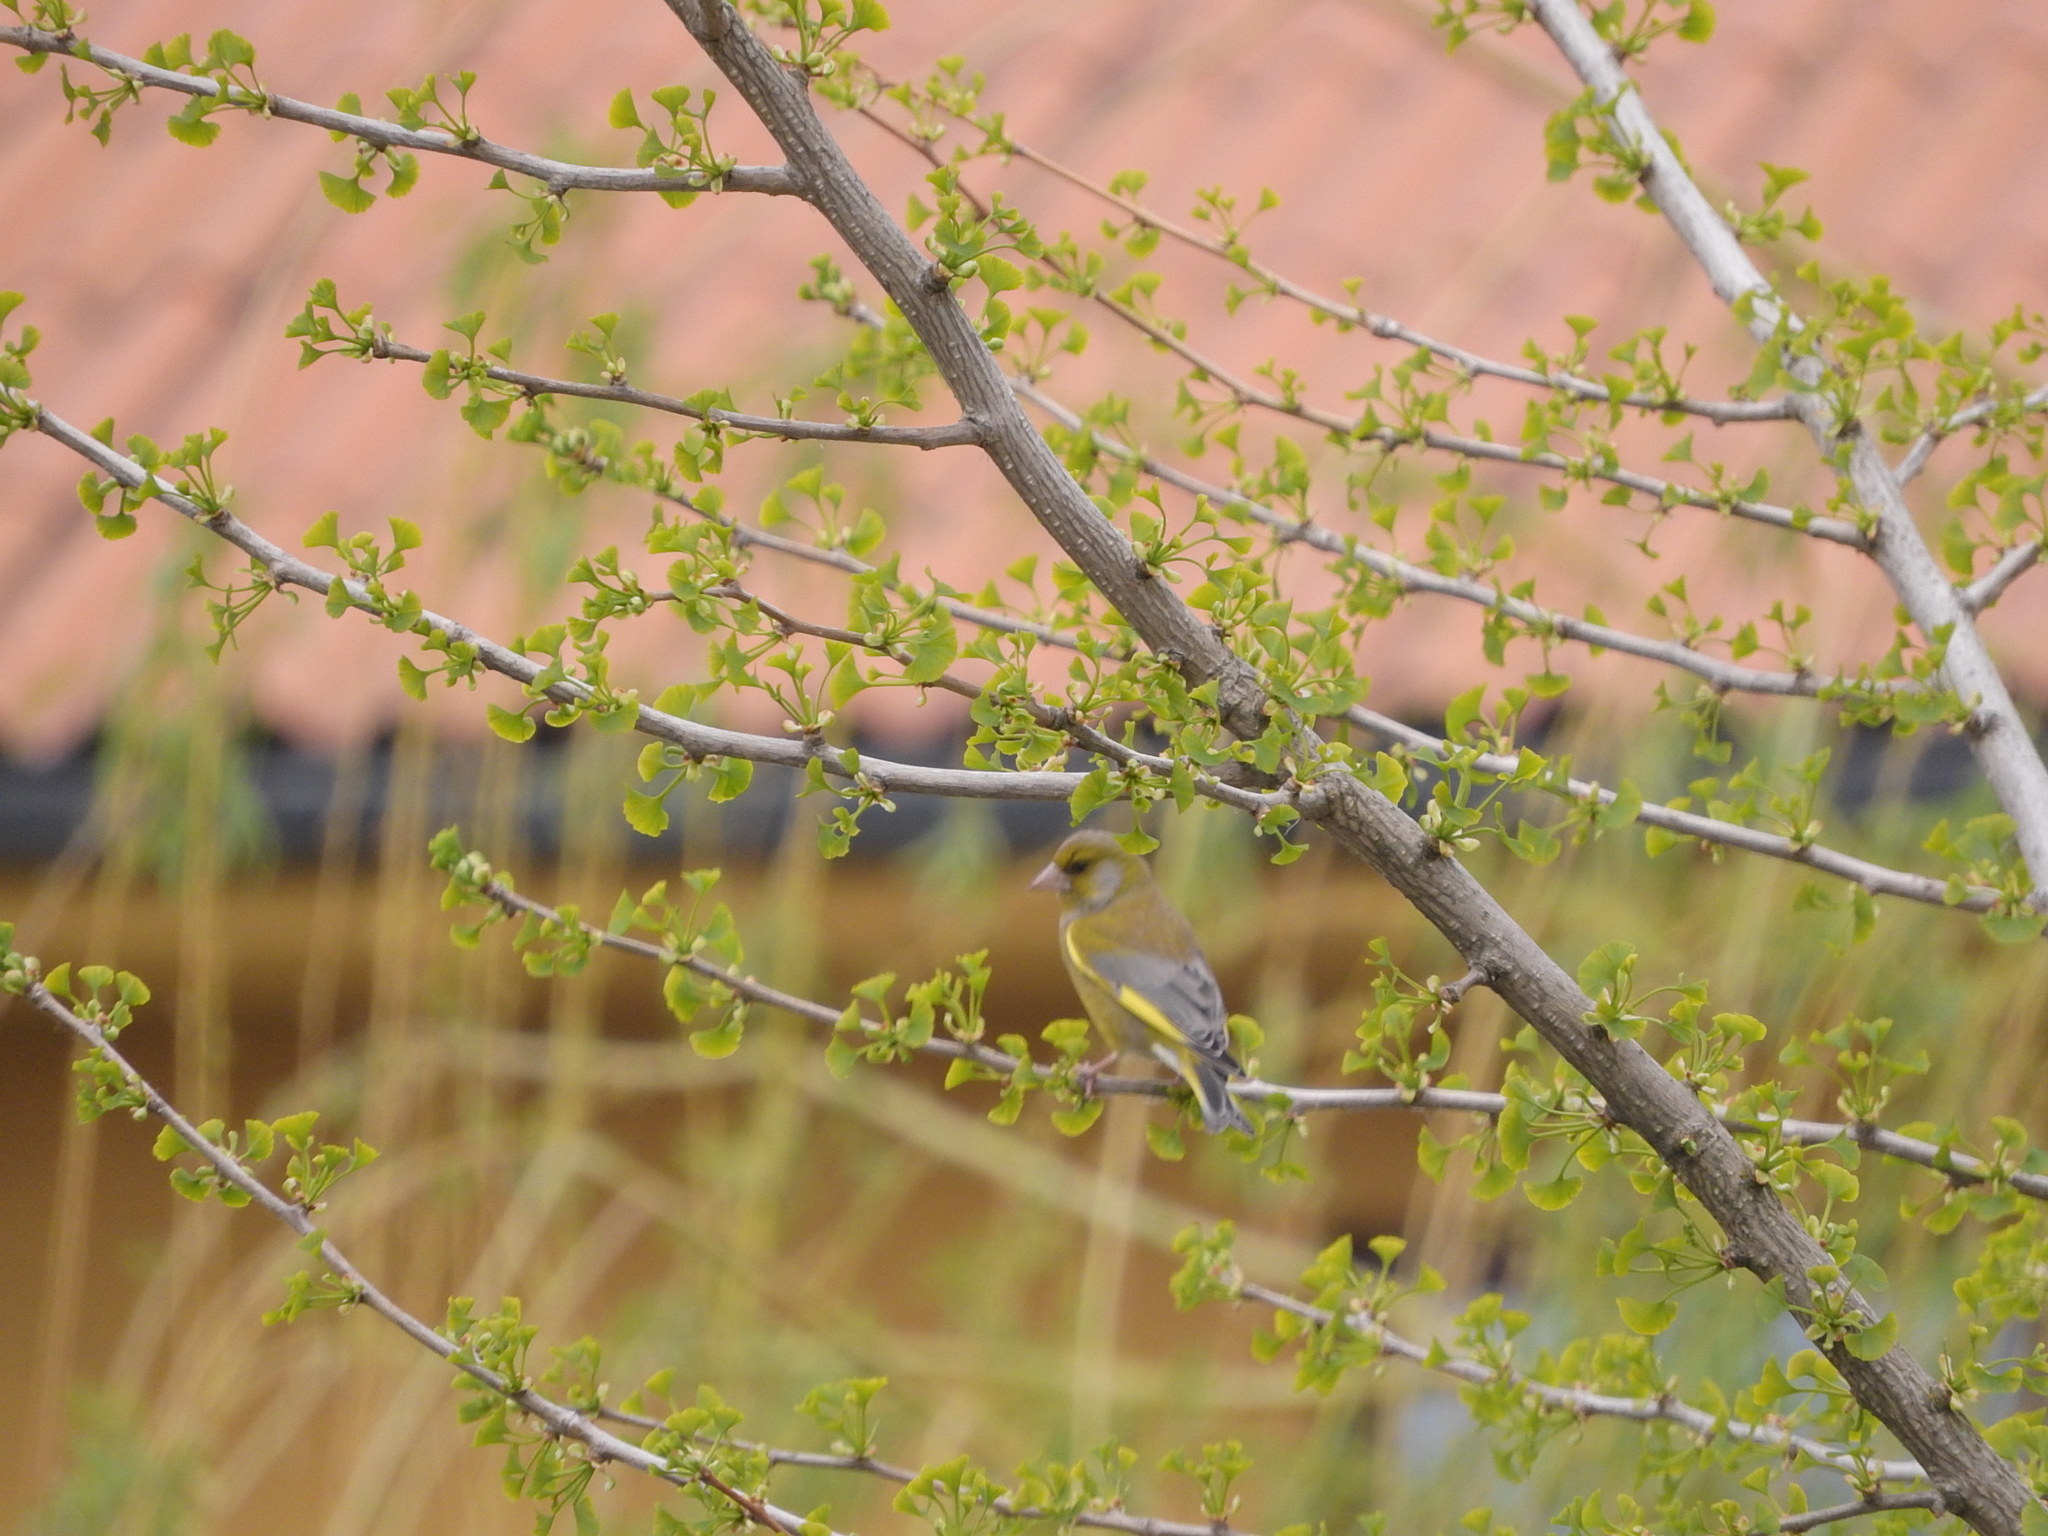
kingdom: Plantae
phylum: Tracheophyta
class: Liliopsida
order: Poales
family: Poaceae
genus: Chloris
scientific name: Chloris chloris
